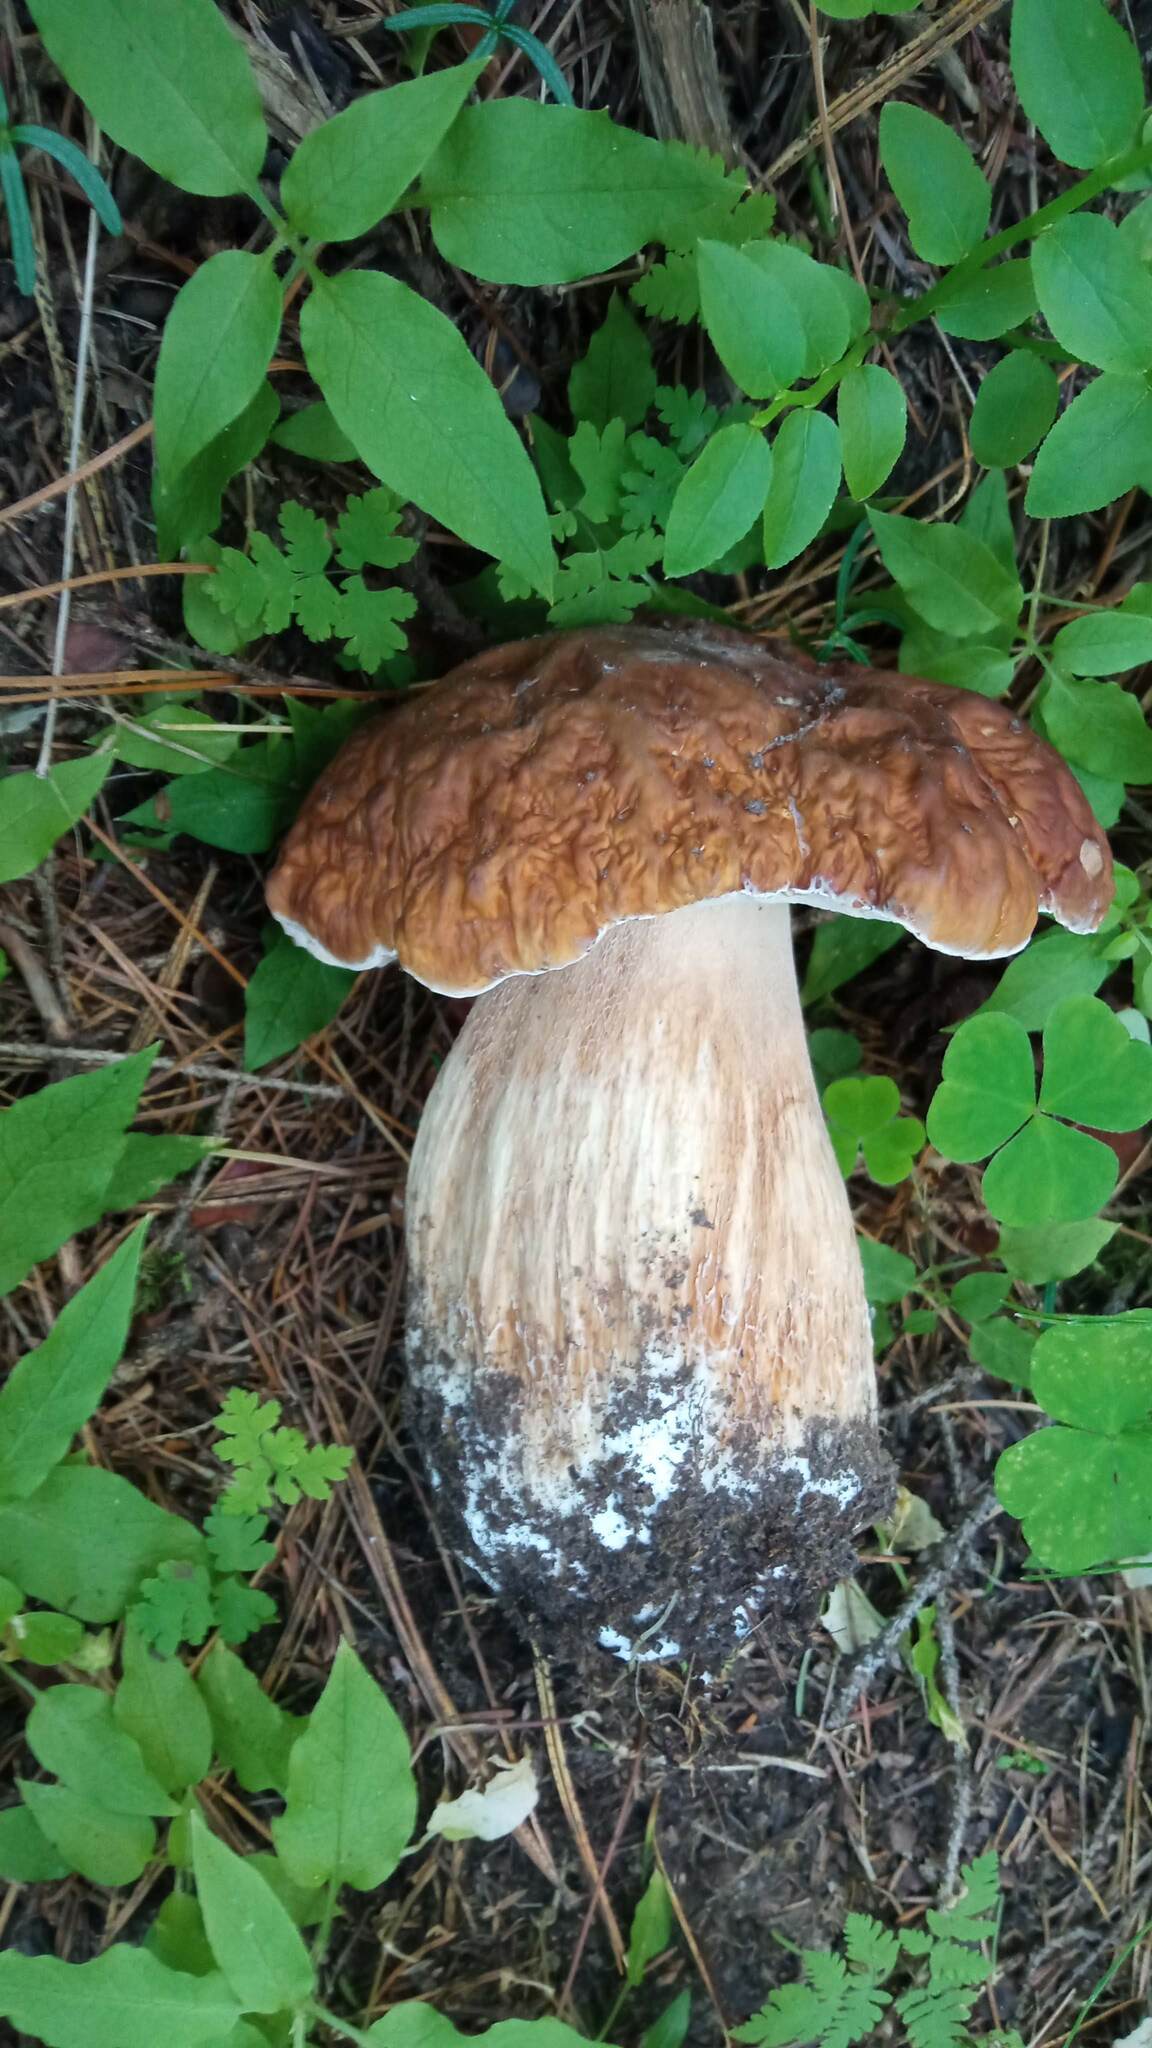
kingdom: Fungi
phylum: Basidiomycota
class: Agaricomycetes
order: Boletales
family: Boletaceae
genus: Boletus
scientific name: Boletus pinophilus
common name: Pine bolete
